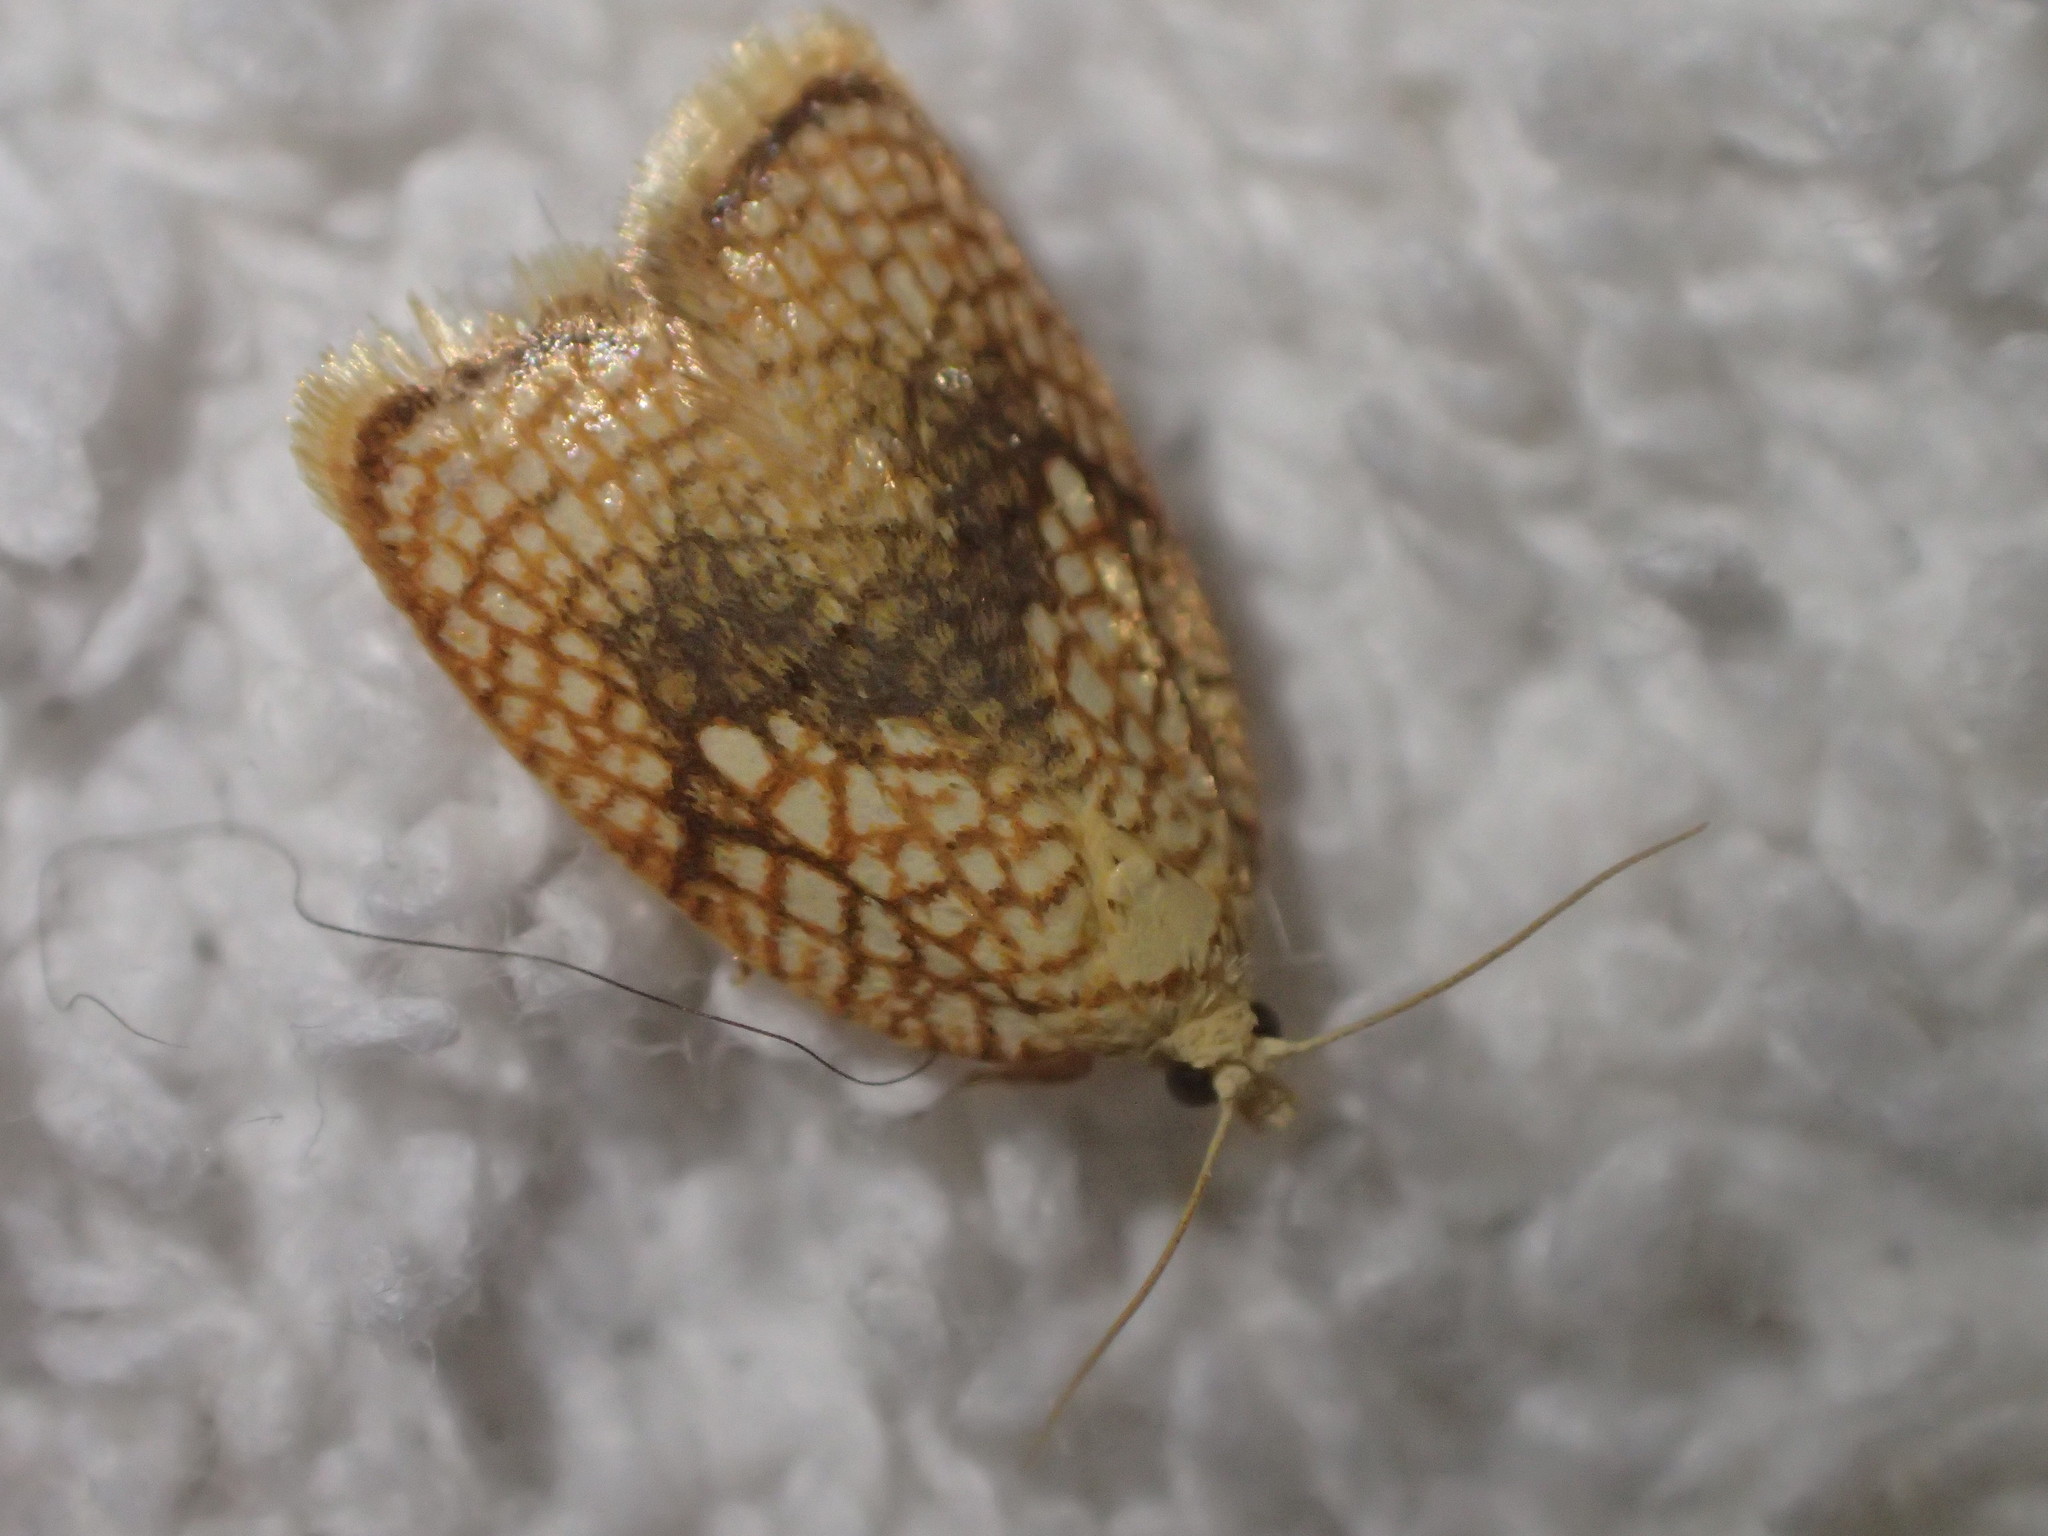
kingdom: Animalia
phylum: Arthropoda
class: Insecta
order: Lepidoptera
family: Tortricidae
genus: Acleris
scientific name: Acleris forsskaleana
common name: Maple button
